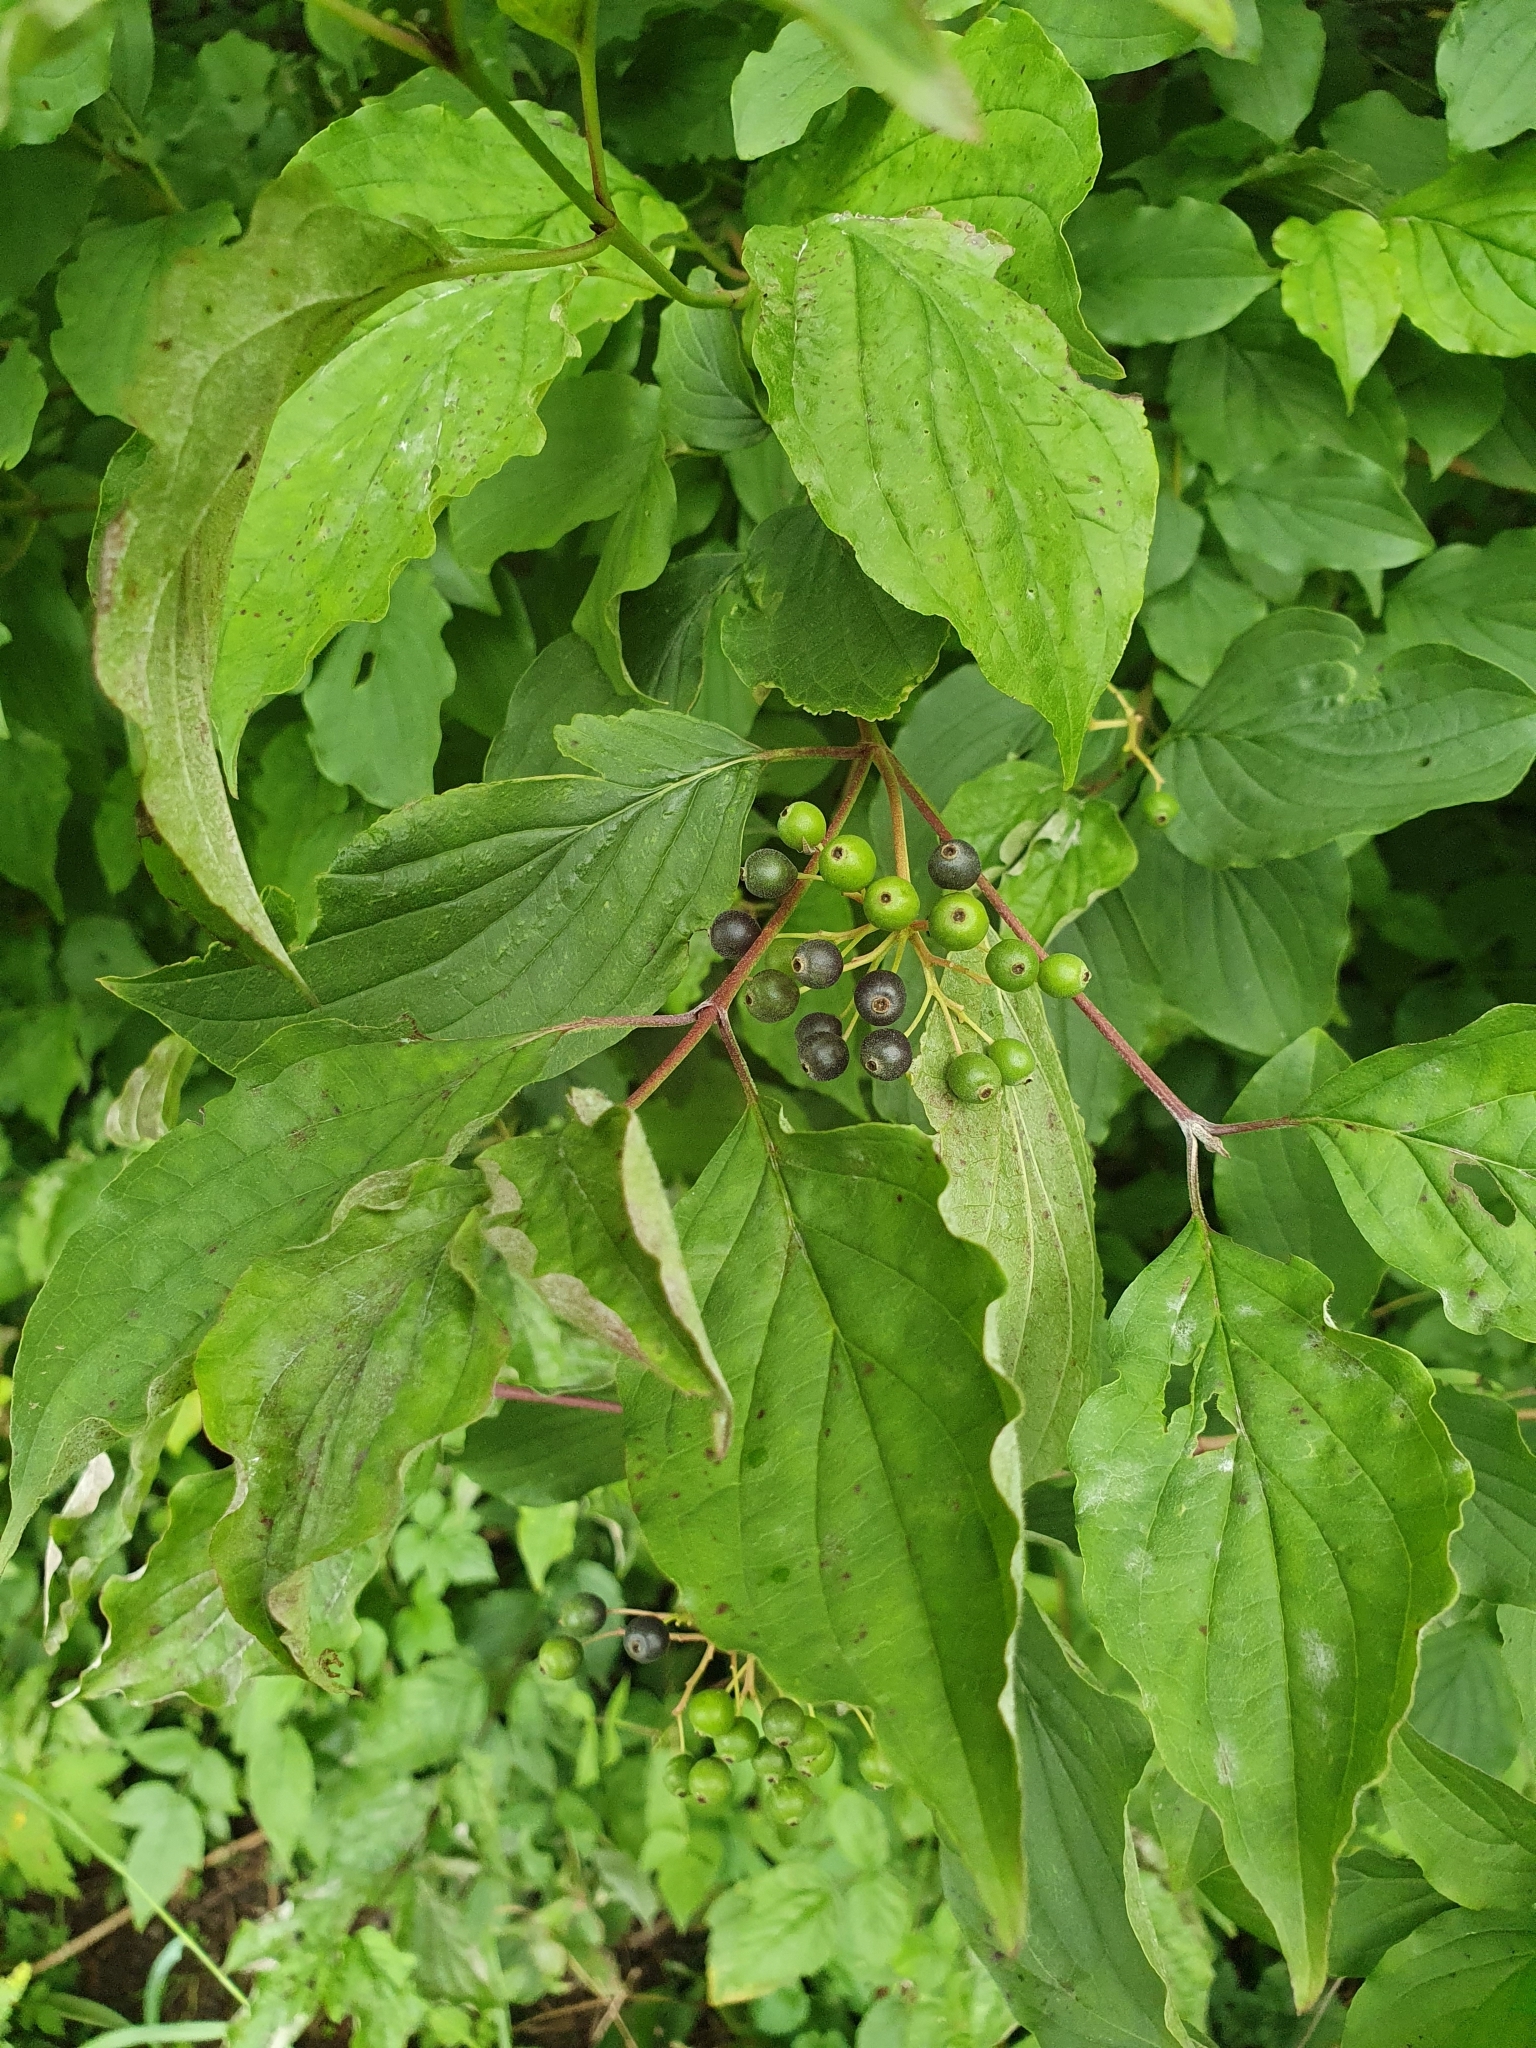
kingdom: Plantae
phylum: Tracheophyta
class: Magnoliopsida
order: Cornales
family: Cornaceae
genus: Cornus
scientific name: Cornus sanguinea
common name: Dogwood
